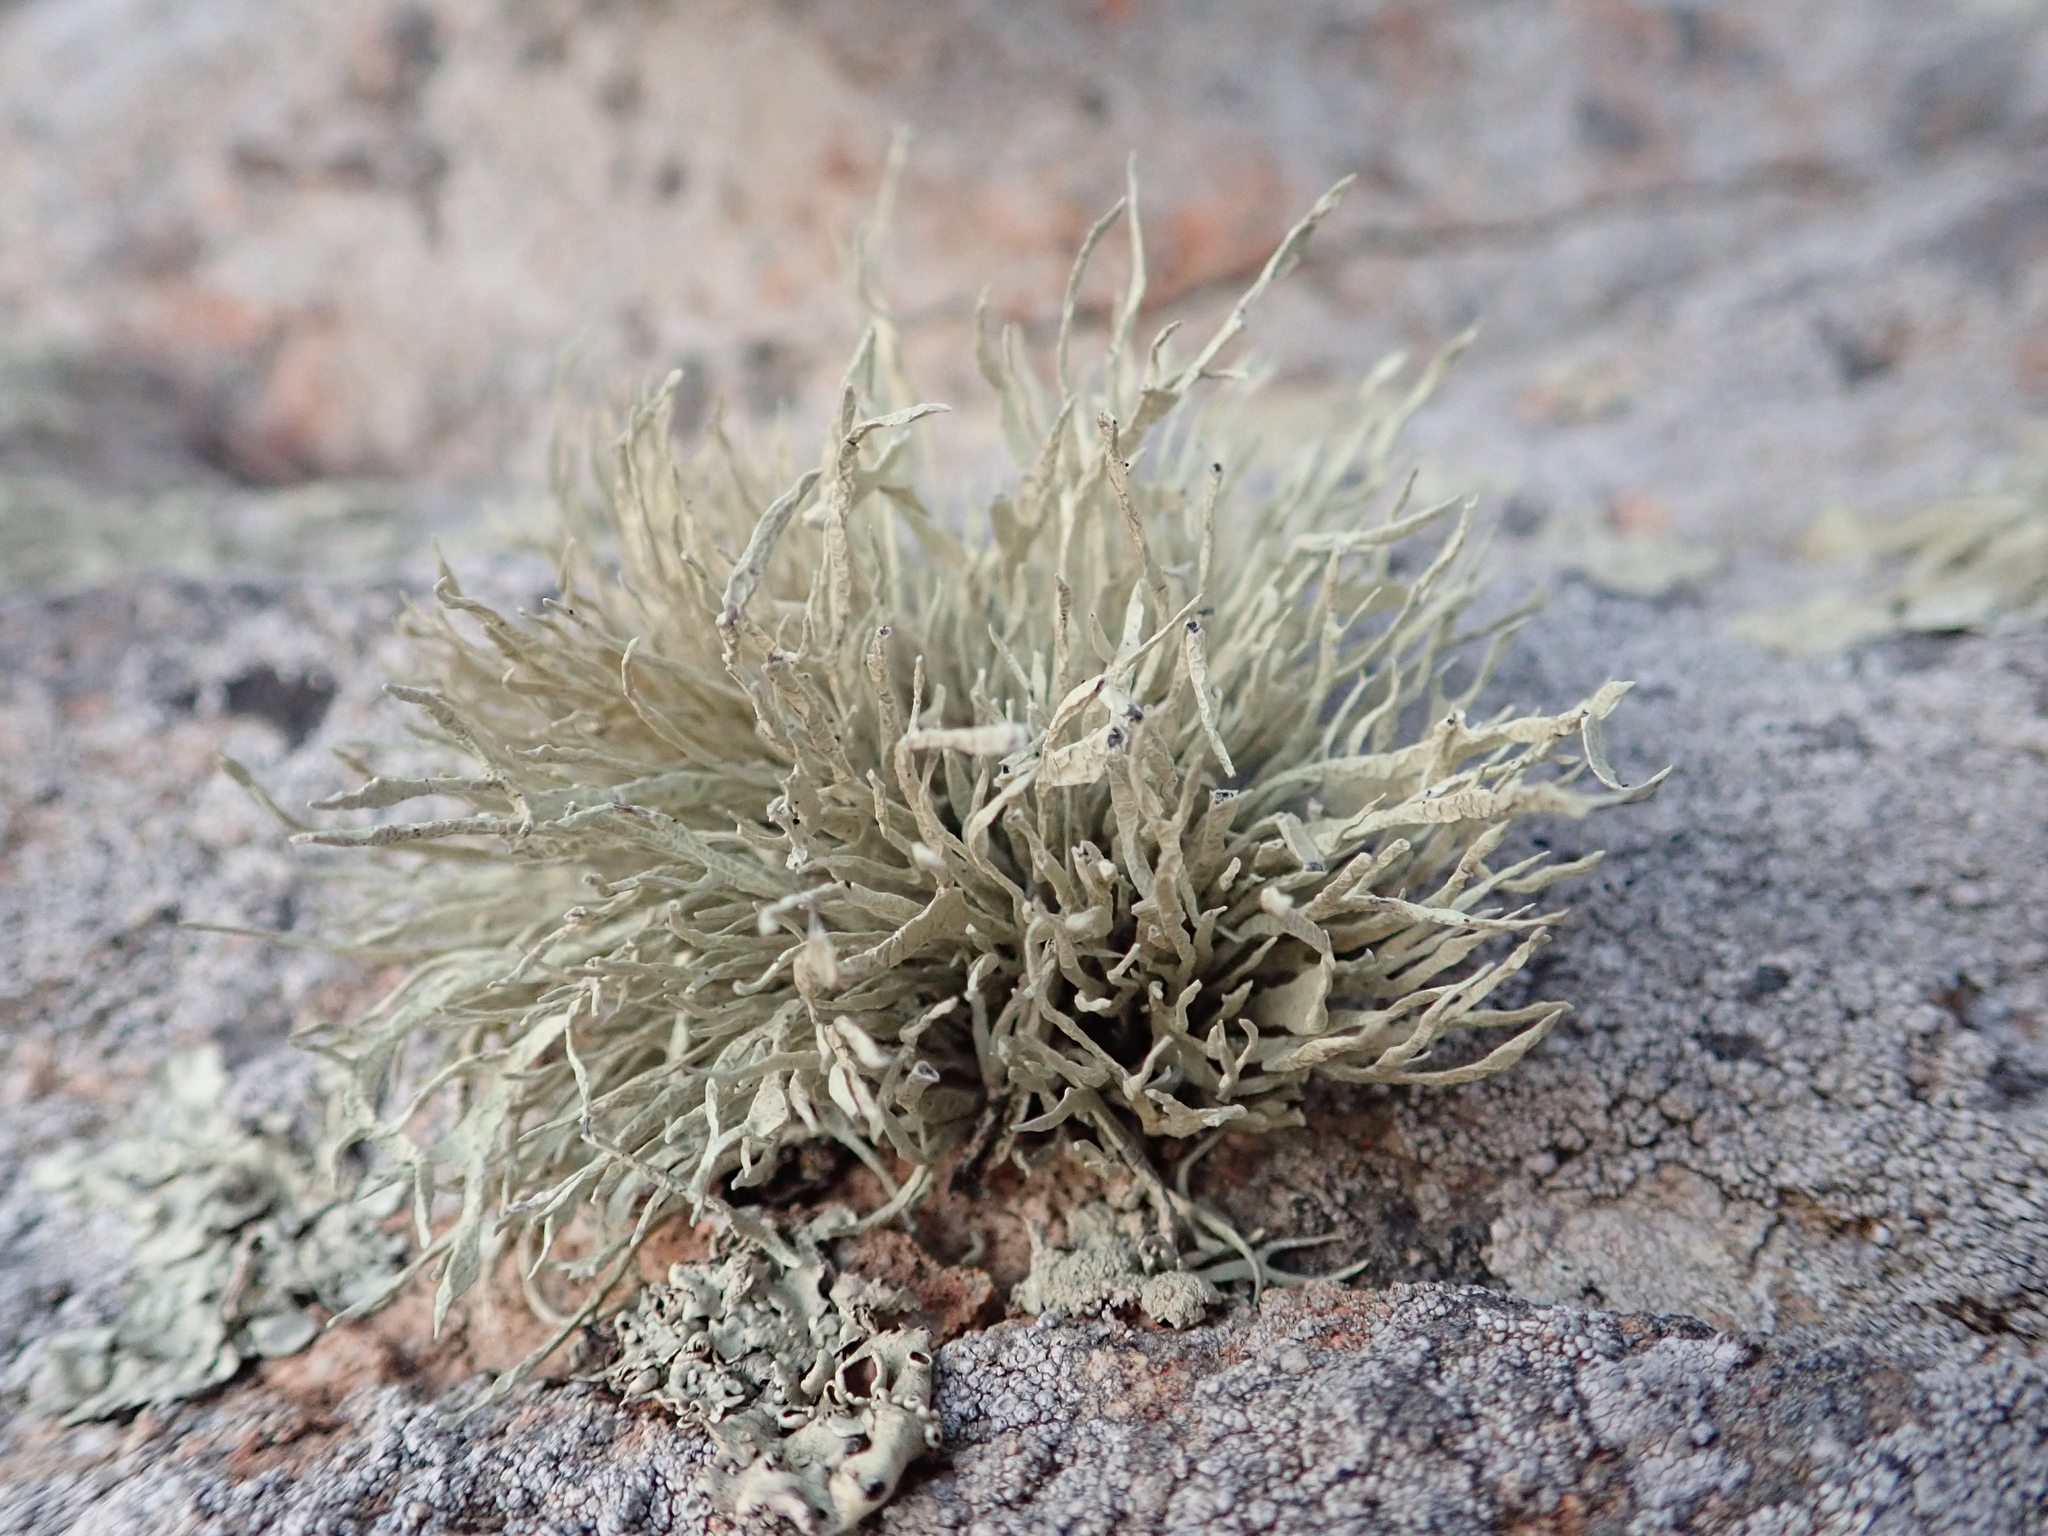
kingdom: Fungi
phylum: Ascomycota
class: Lecanoromycetes
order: Lecanorales
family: Ramalinaceae
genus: Niebla
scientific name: Niebla homalea
